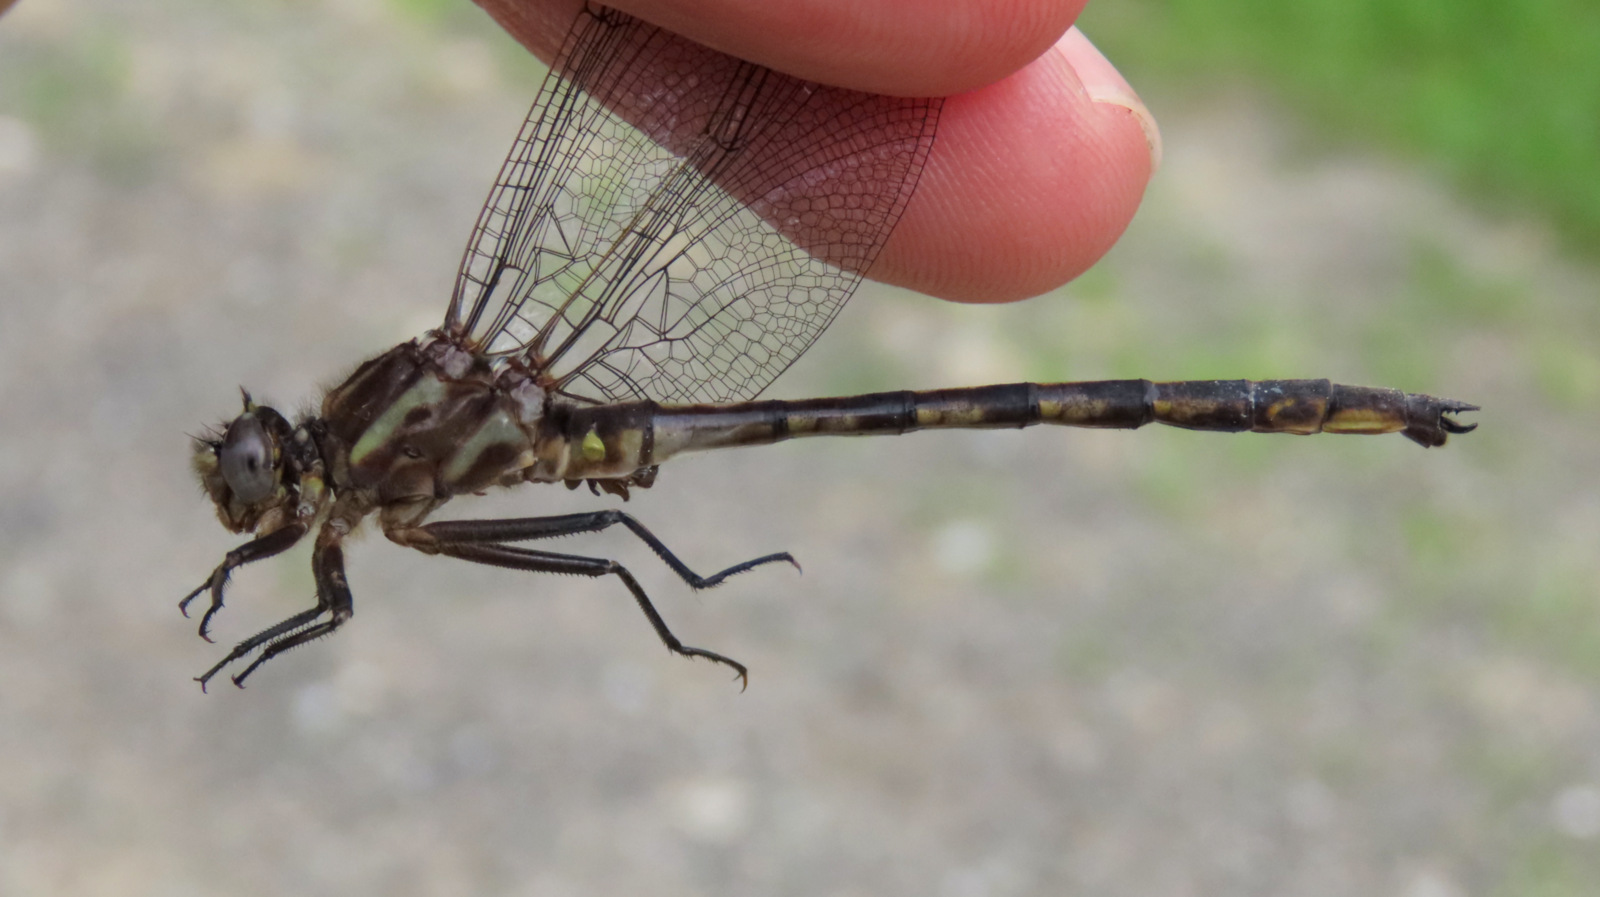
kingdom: Animalia
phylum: Arthropoda
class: Insecta
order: Odonata
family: Gomphidae
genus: Phanogomphus
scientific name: Phanogomphus spicatus
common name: Dusky clubtail
